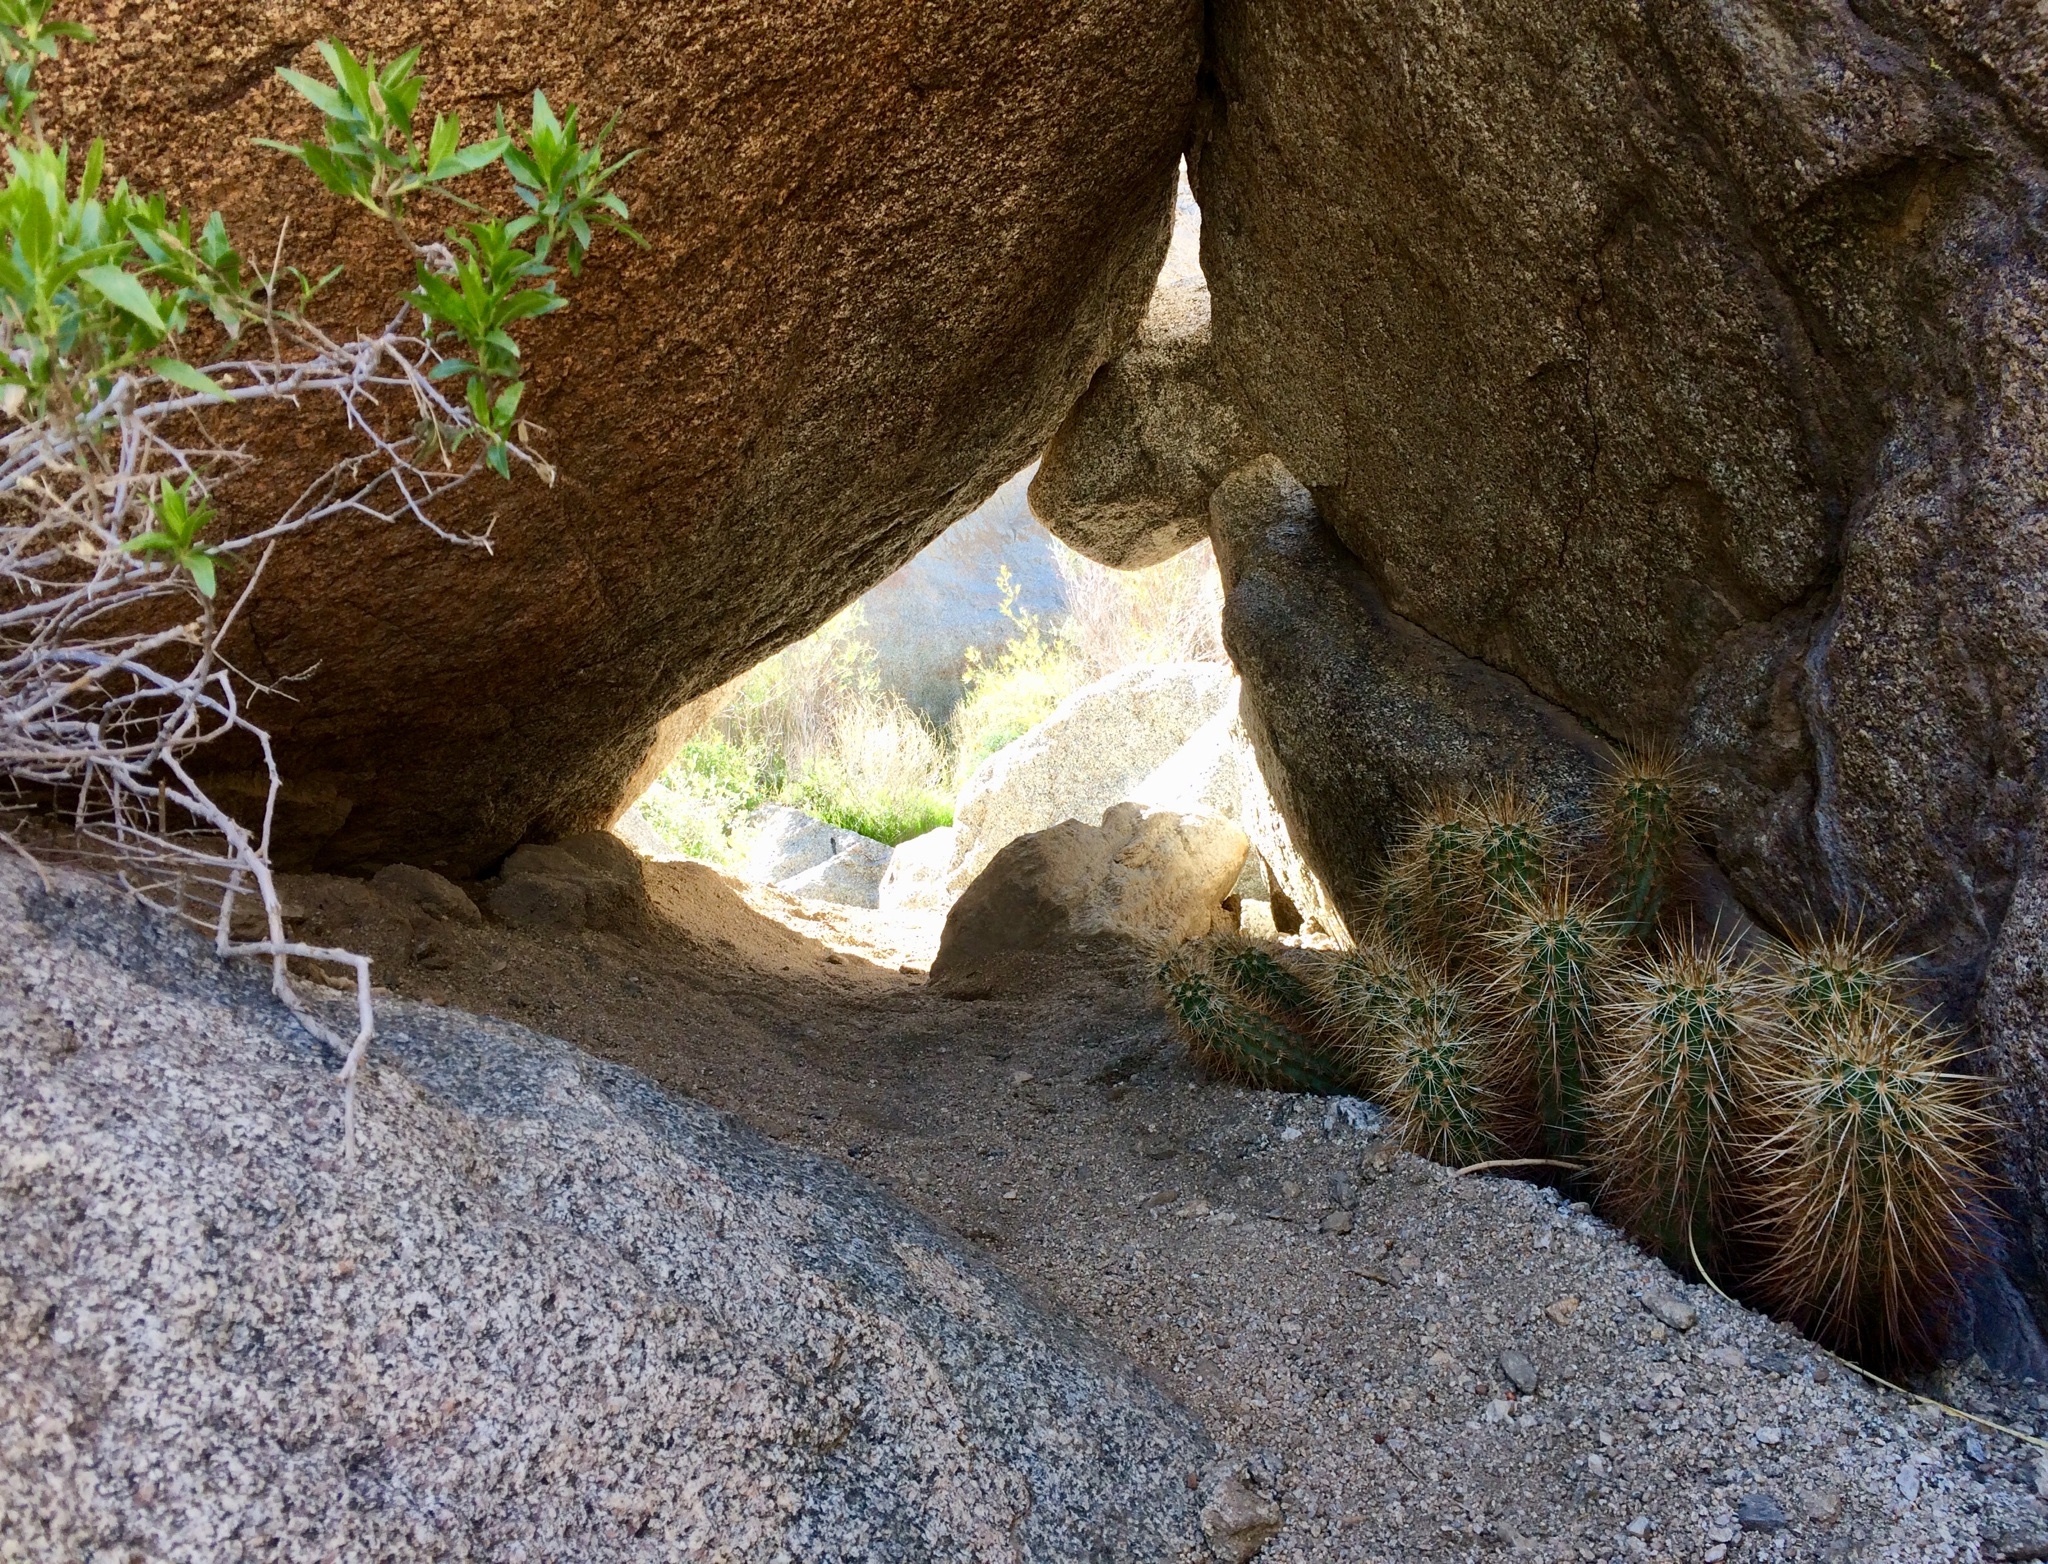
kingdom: Plantae
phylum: Tracheophyta
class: Magnoliopsida
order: Caryophyllales
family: Cactaceae
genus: Echinocereus
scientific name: Echinocereus engelmannii
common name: Engelmann's hedgehog cactus
